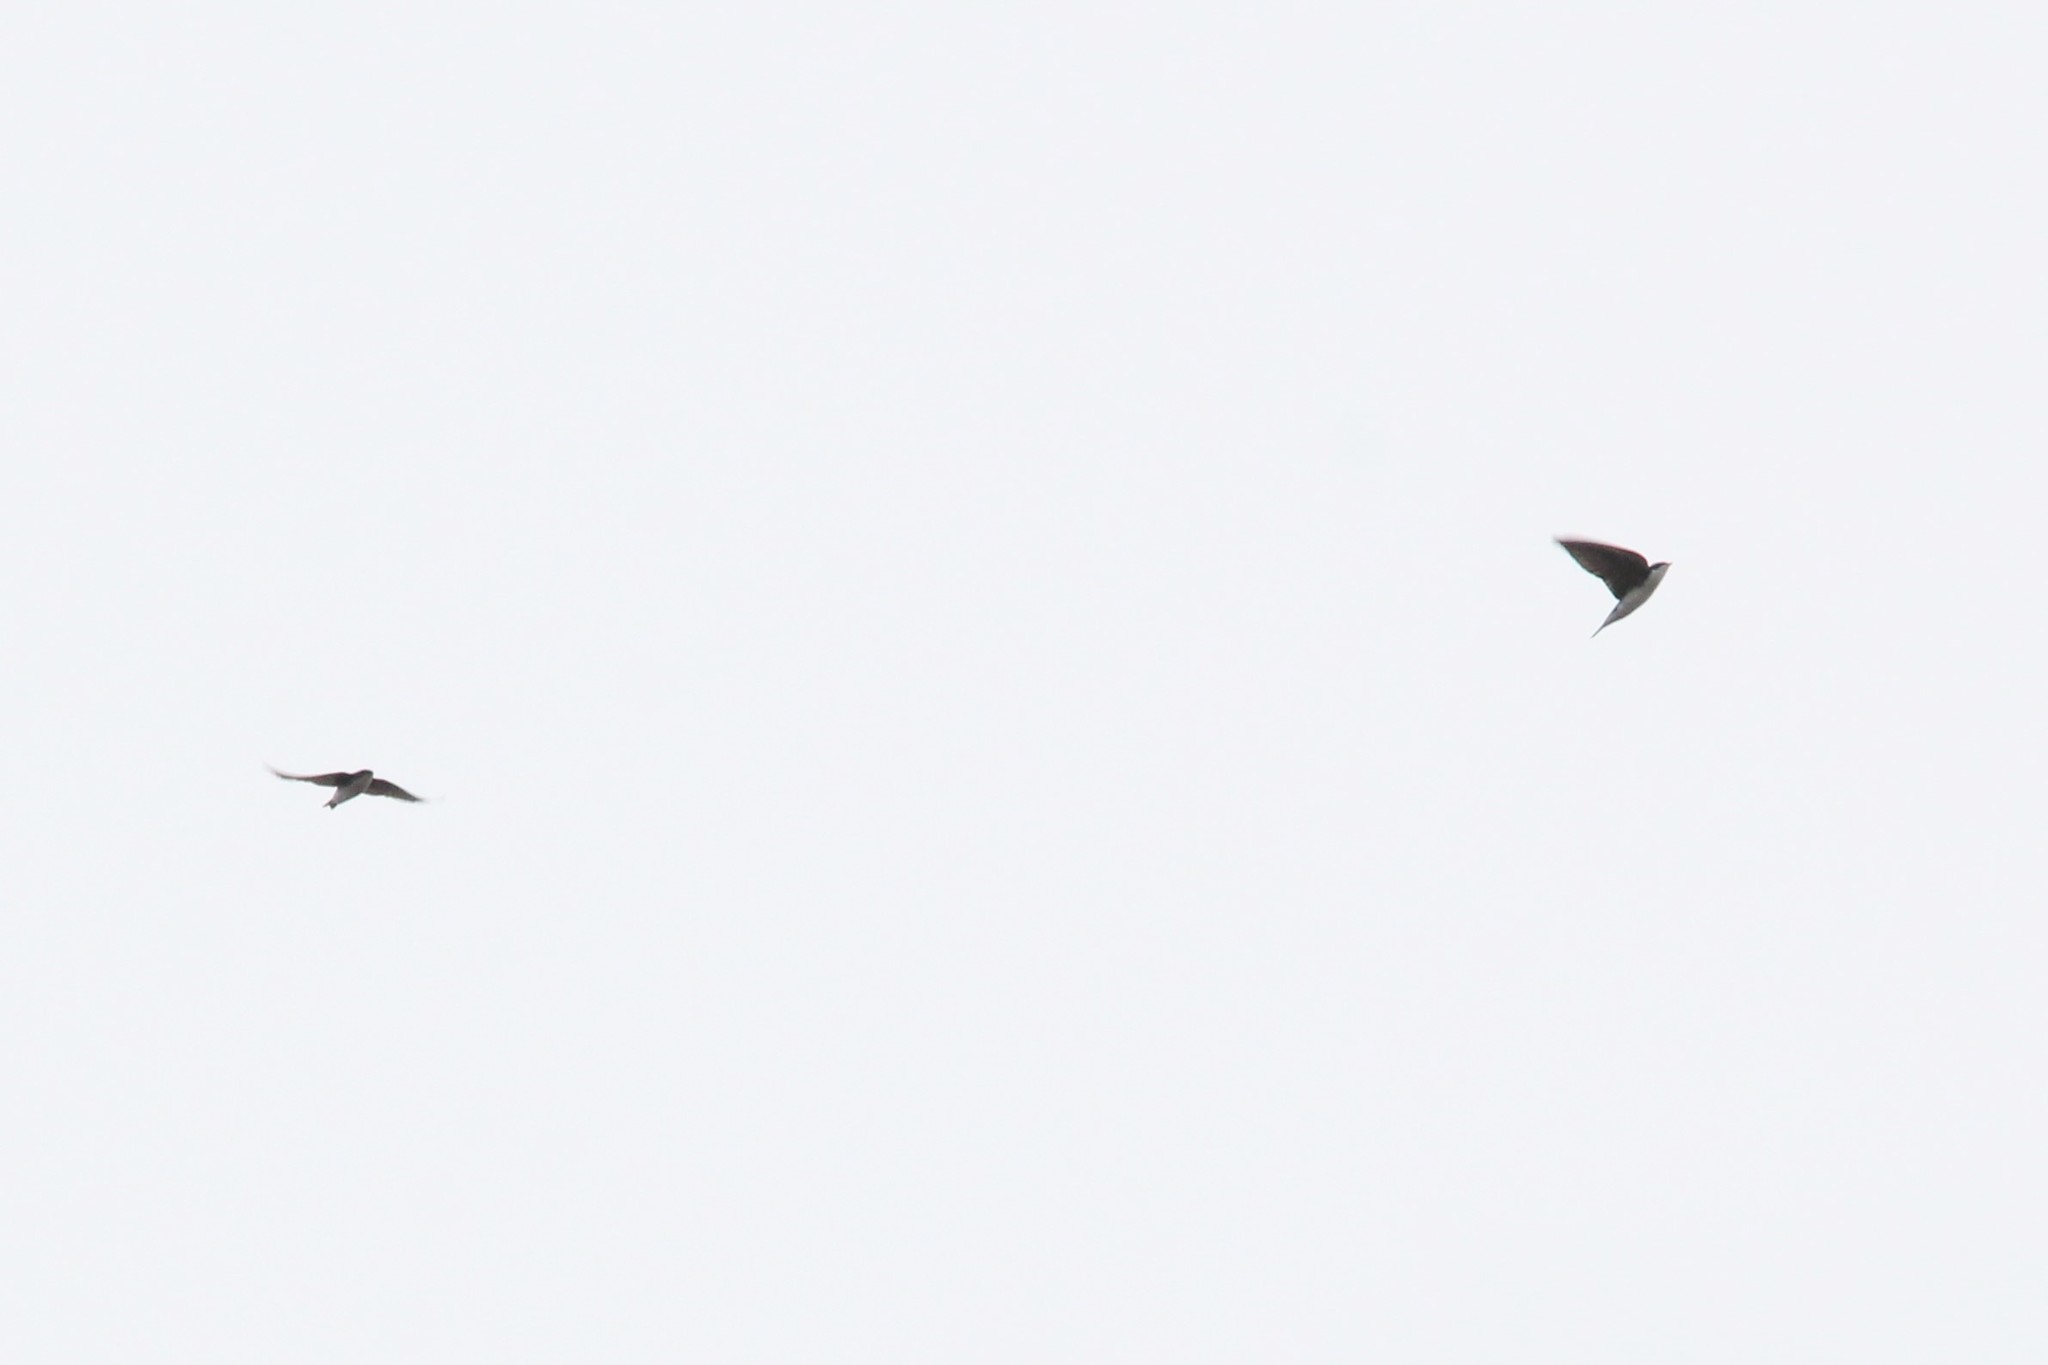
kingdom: Animalia
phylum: Chordata
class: Aves
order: Passeriformes
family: Hirundinidae
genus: Tachycineta
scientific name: Tachycineta bicolor
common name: Tree swallow
